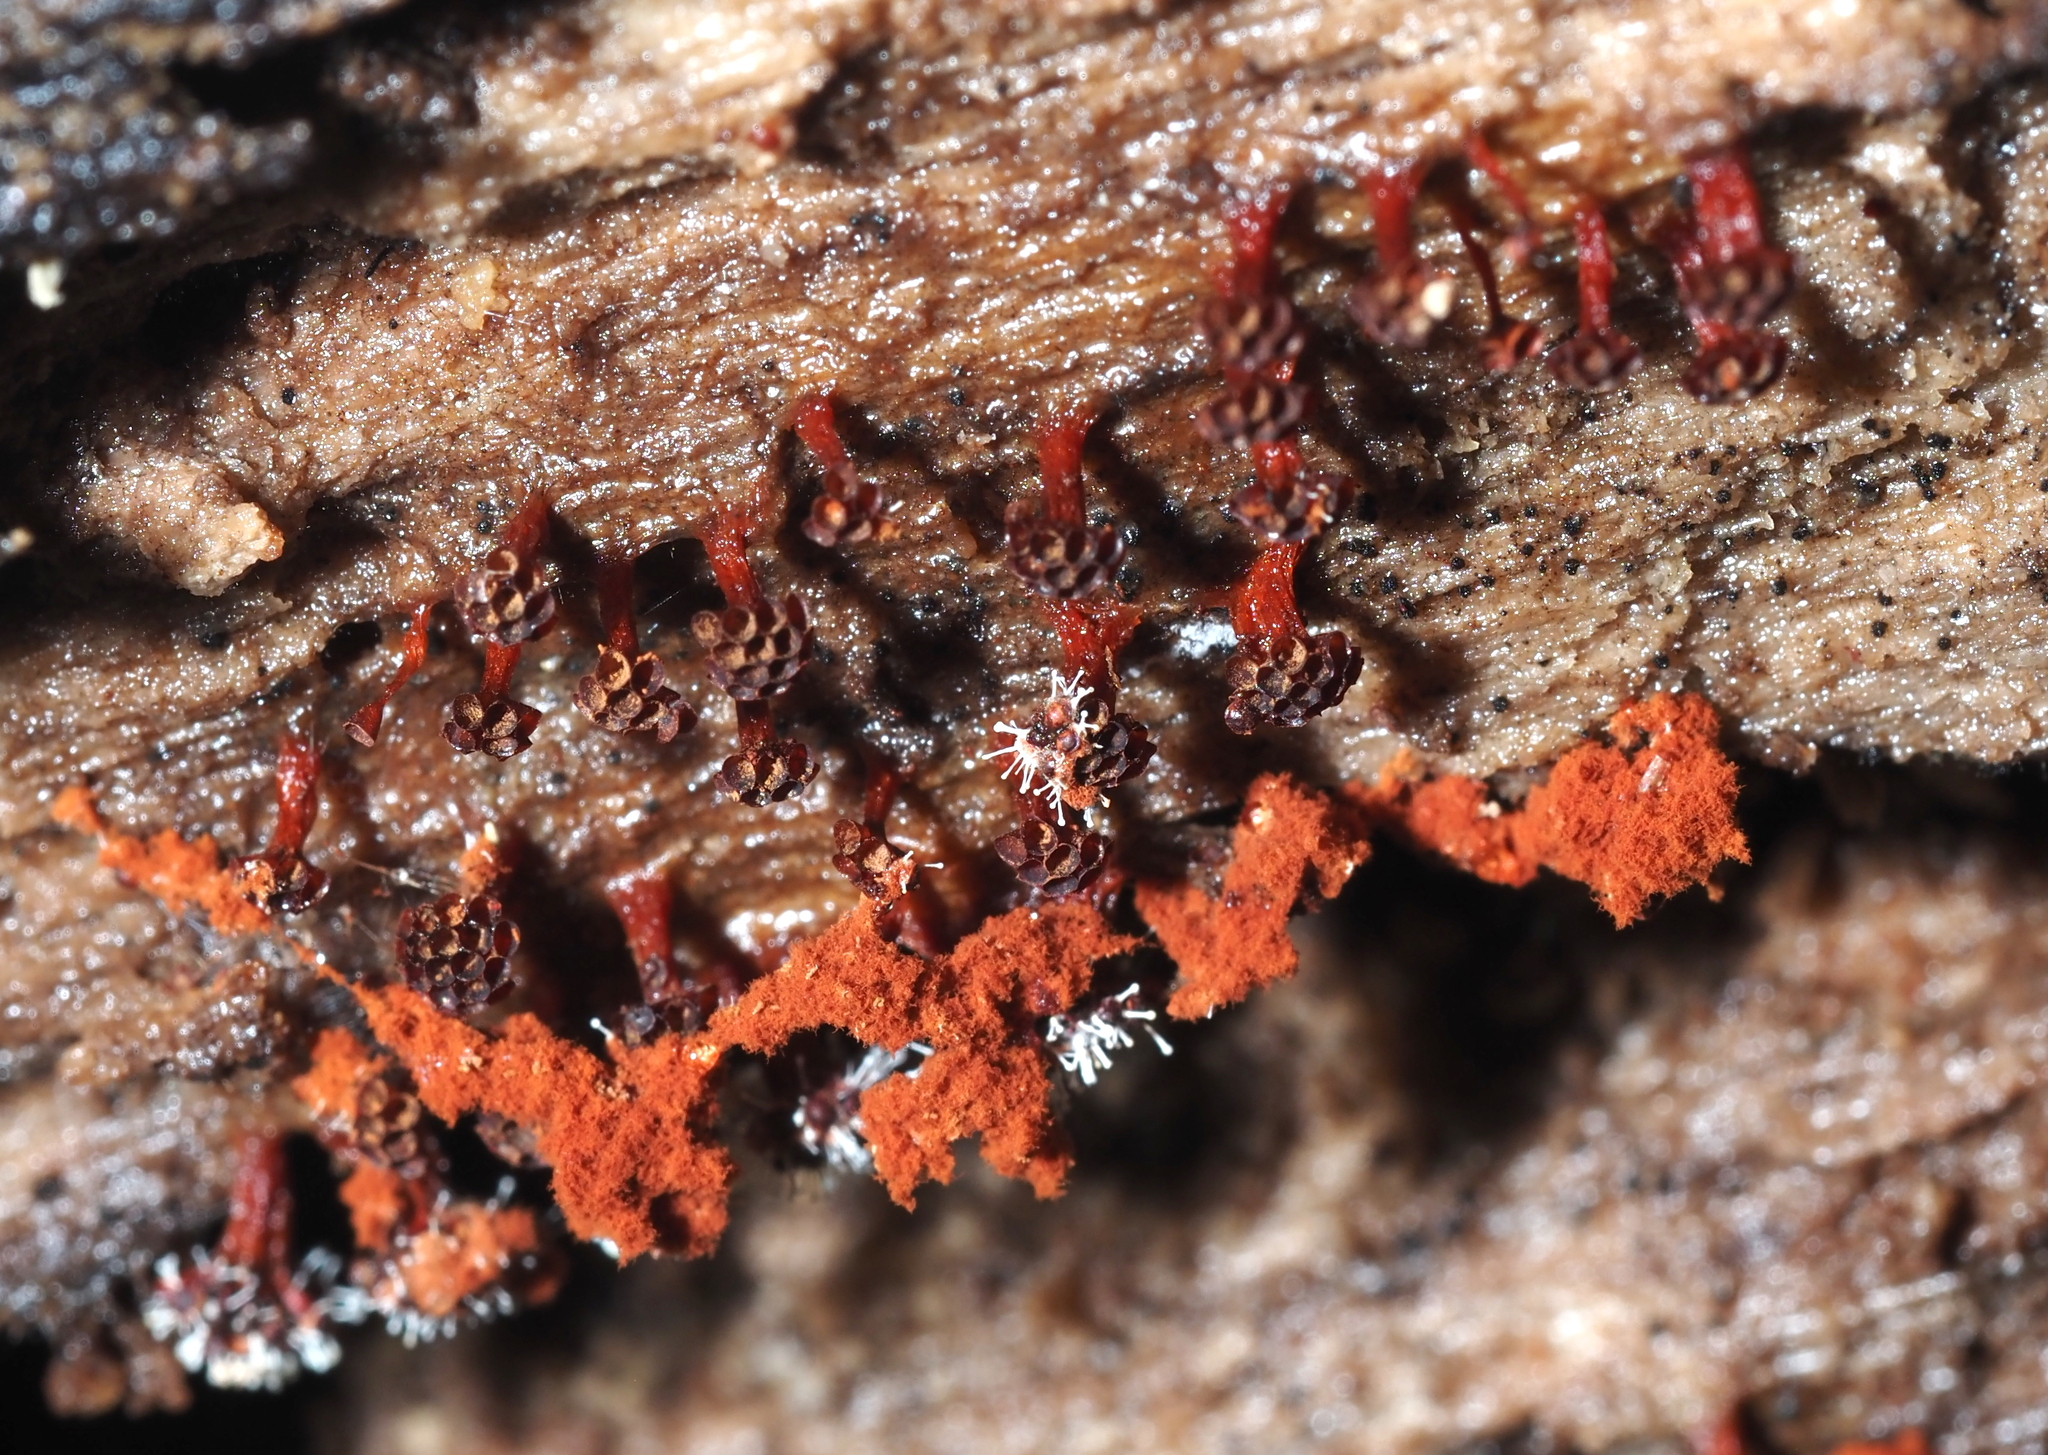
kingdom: Protozoa
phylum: Mycetozoa
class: Myxomycetes
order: Trichiales
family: Trichiaceae
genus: Metatrichia
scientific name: Metatrichia vesparia
